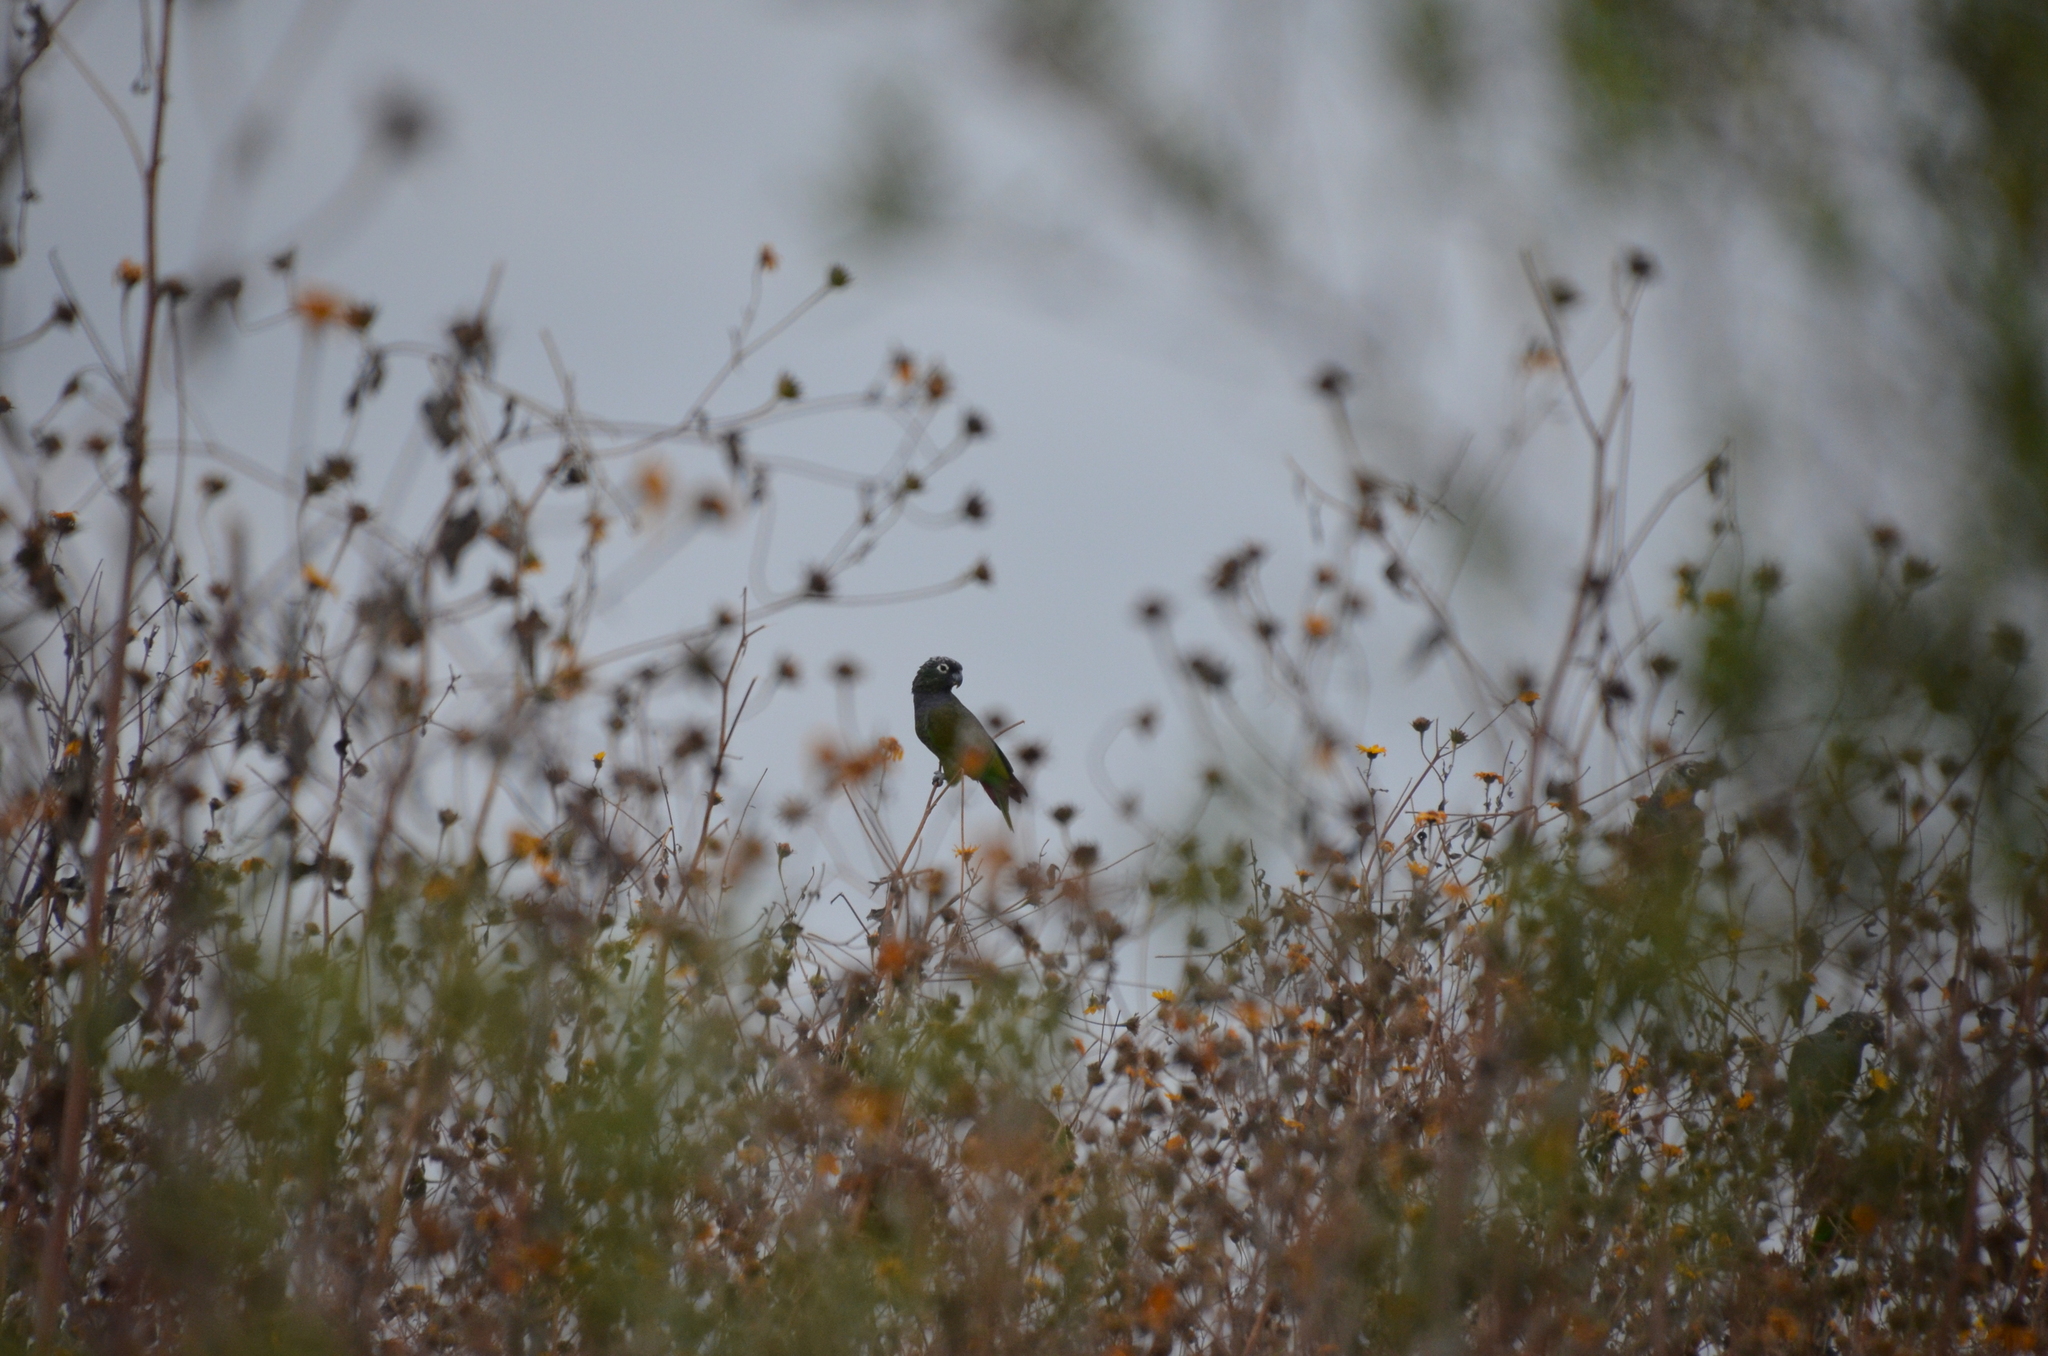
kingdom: Animalia
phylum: Chordata
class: Aves
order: Psittaciformes
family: Psittacidae
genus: Pionus
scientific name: Pionus maximiliani
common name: Scaly-headed parrot
